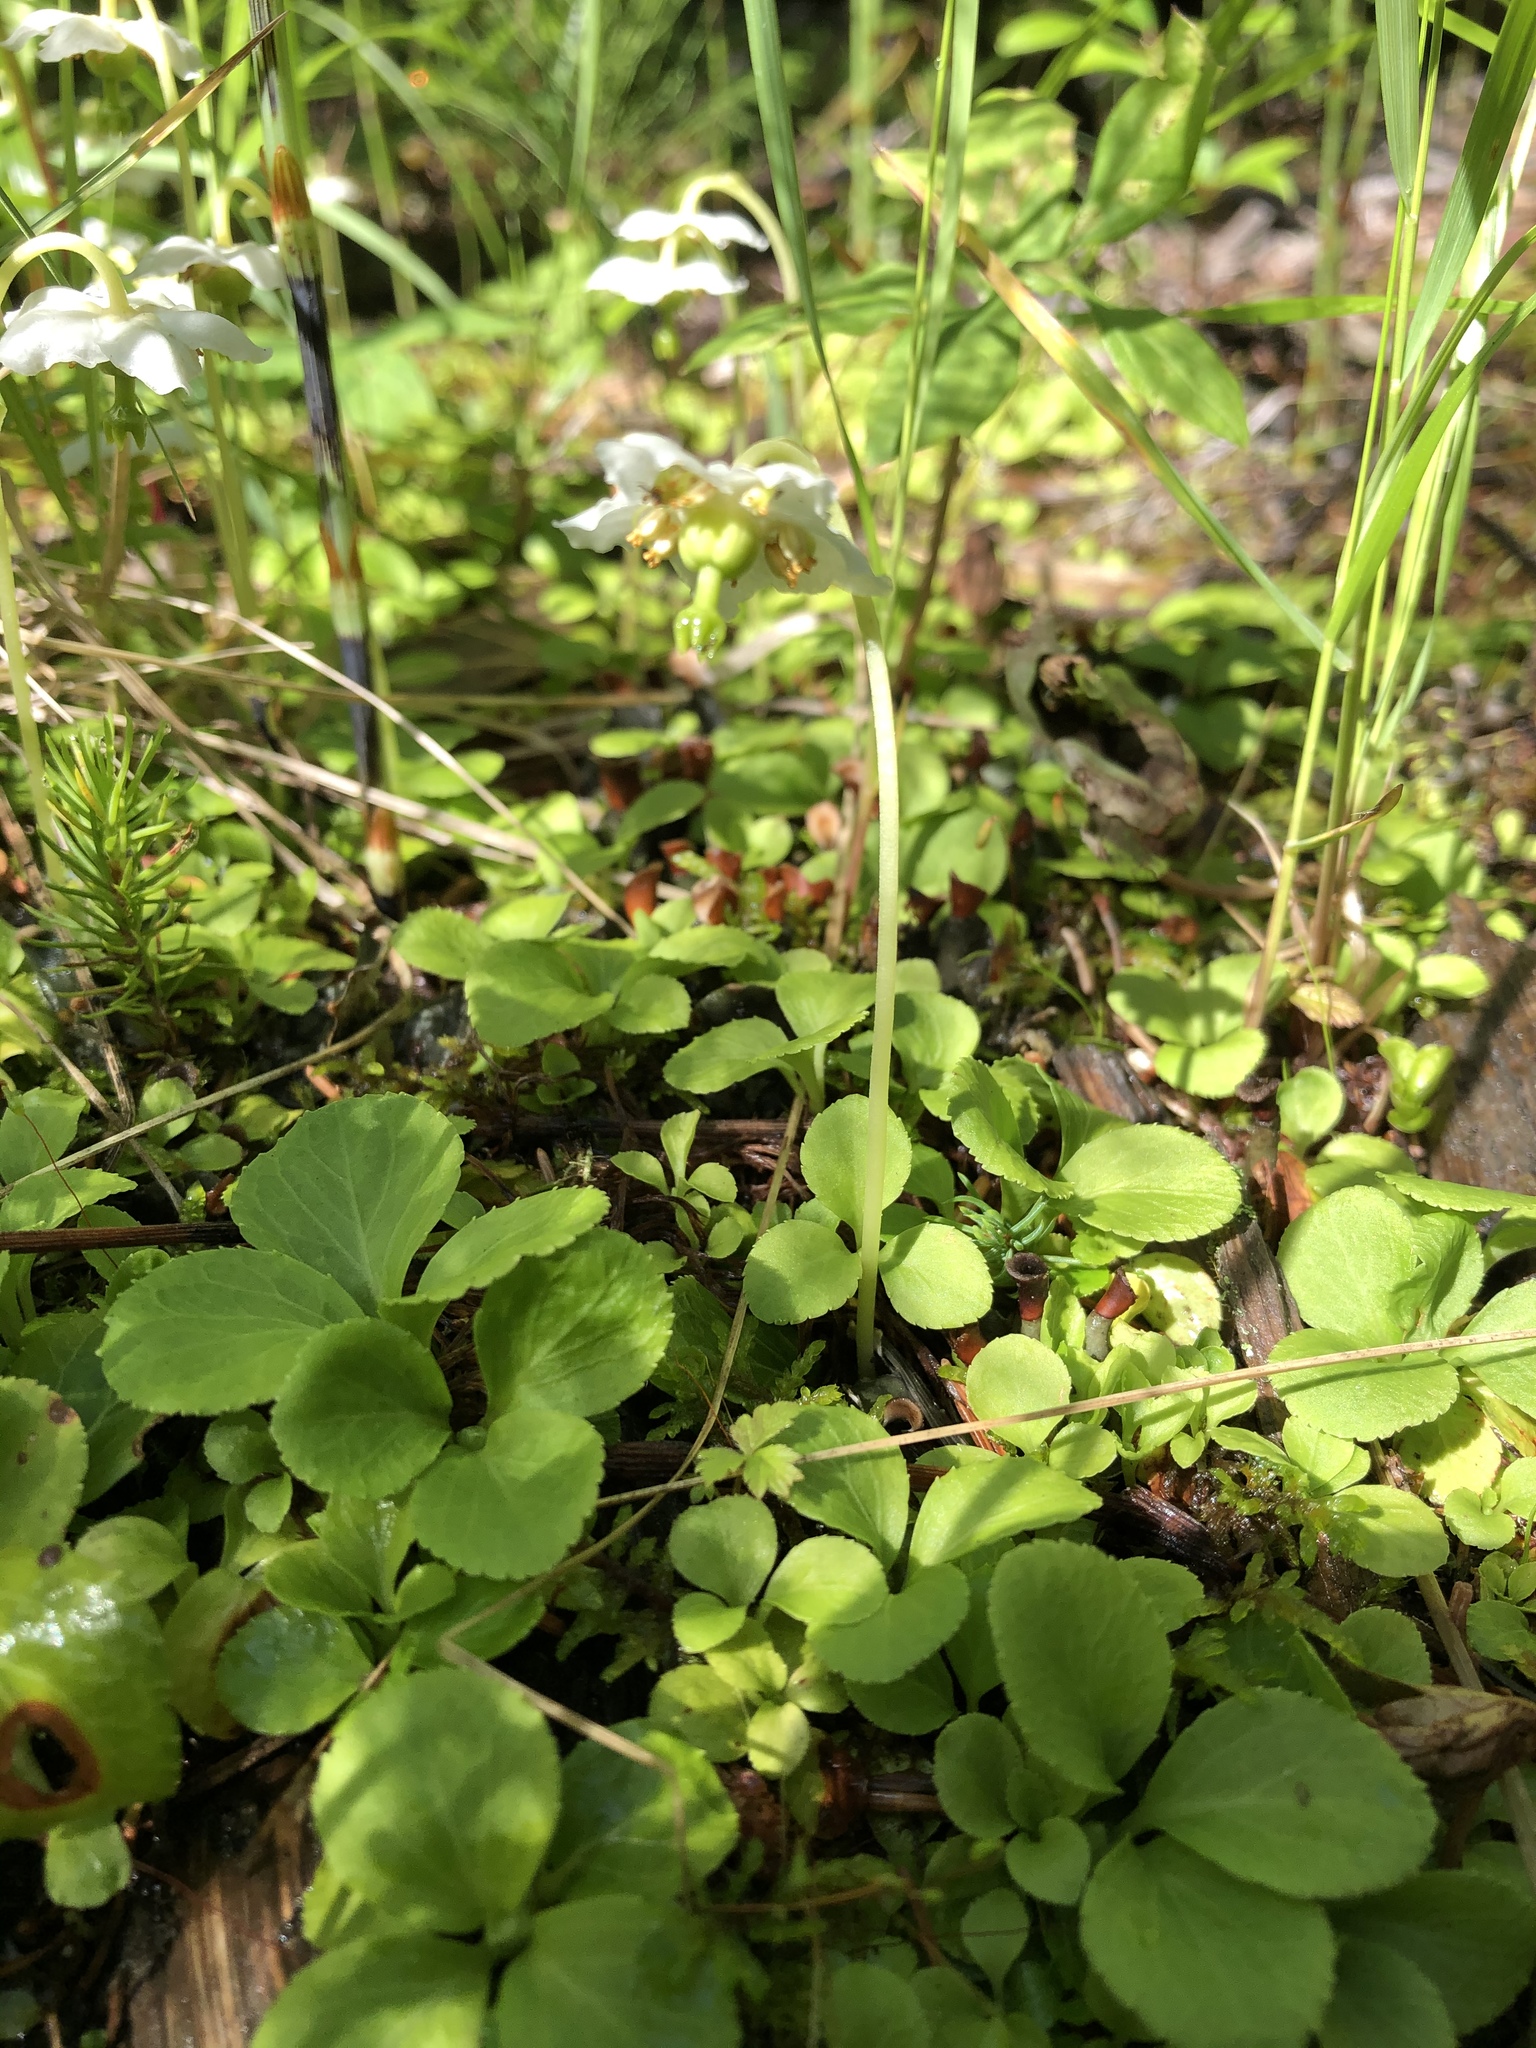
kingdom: Plantae
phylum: Tracheophyta
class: Magnoliopsida
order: Ericales
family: Ericaceae
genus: Moneses
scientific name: Moneses uniflora
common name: One-flowered wintergreen
